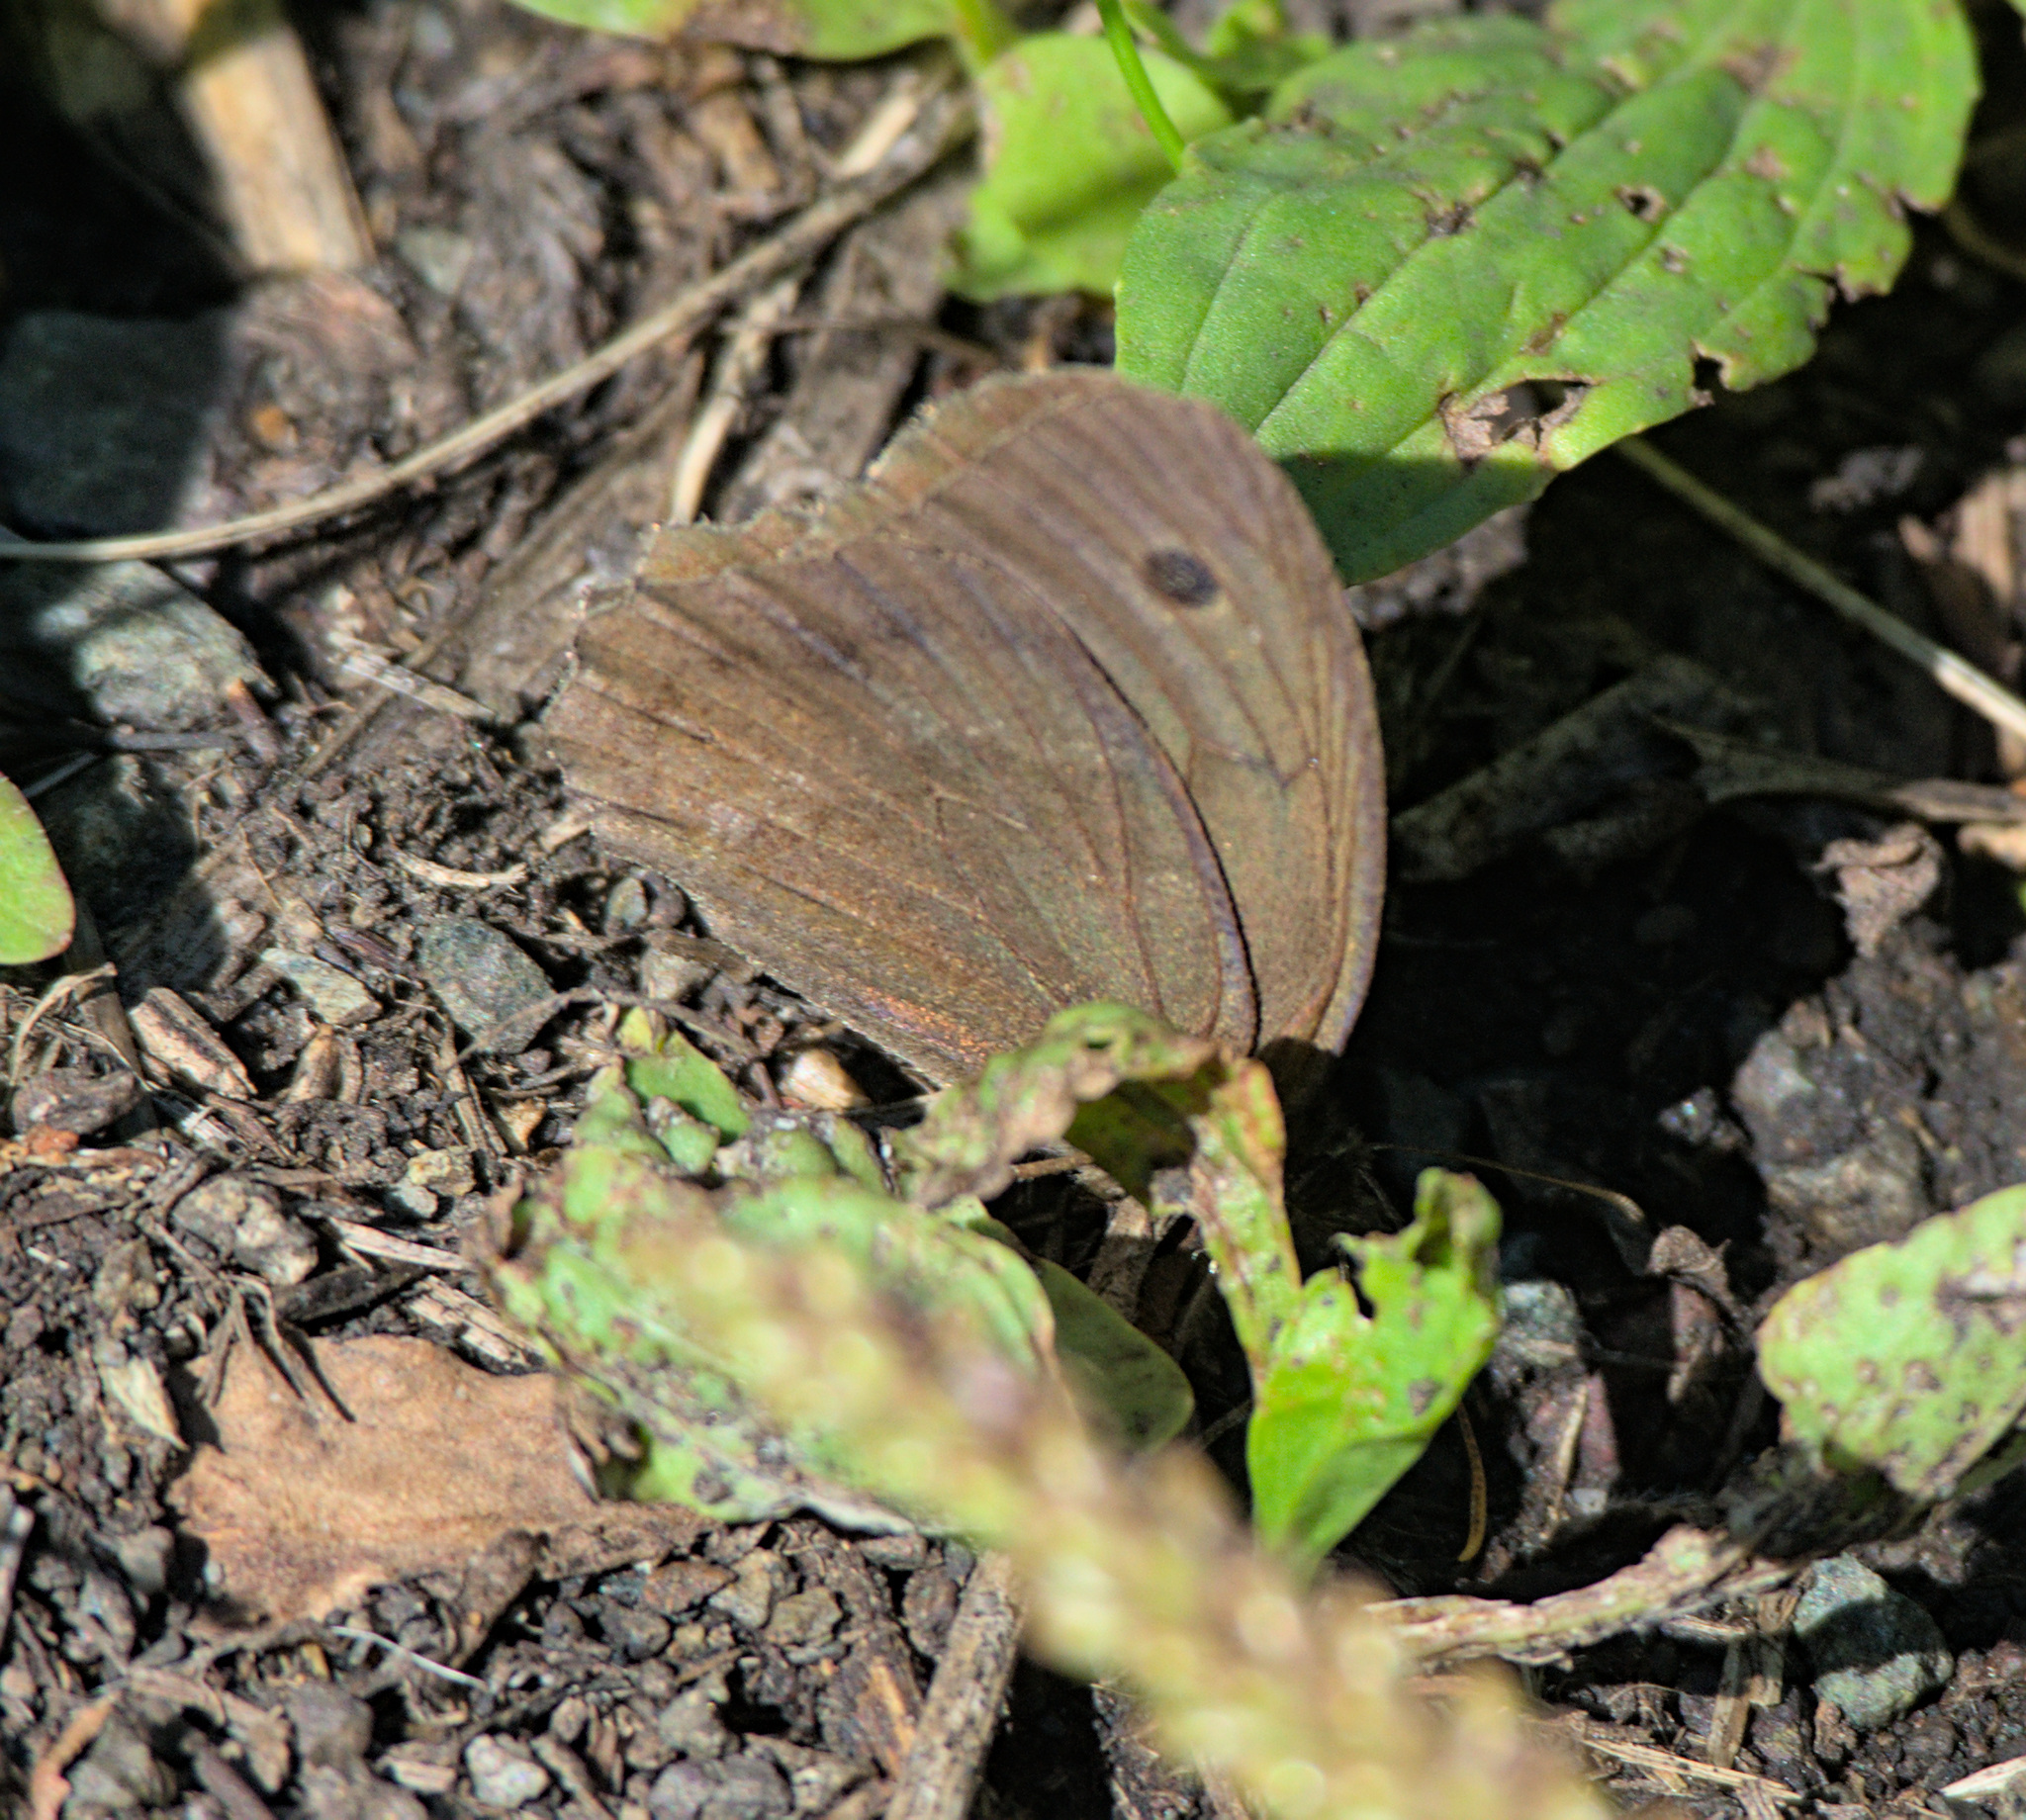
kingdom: Animalia
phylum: Arthropoda
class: Insecta
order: Lepidoptera
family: Nymphalidae
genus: Minois
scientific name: Minois dryas
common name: Dryad
